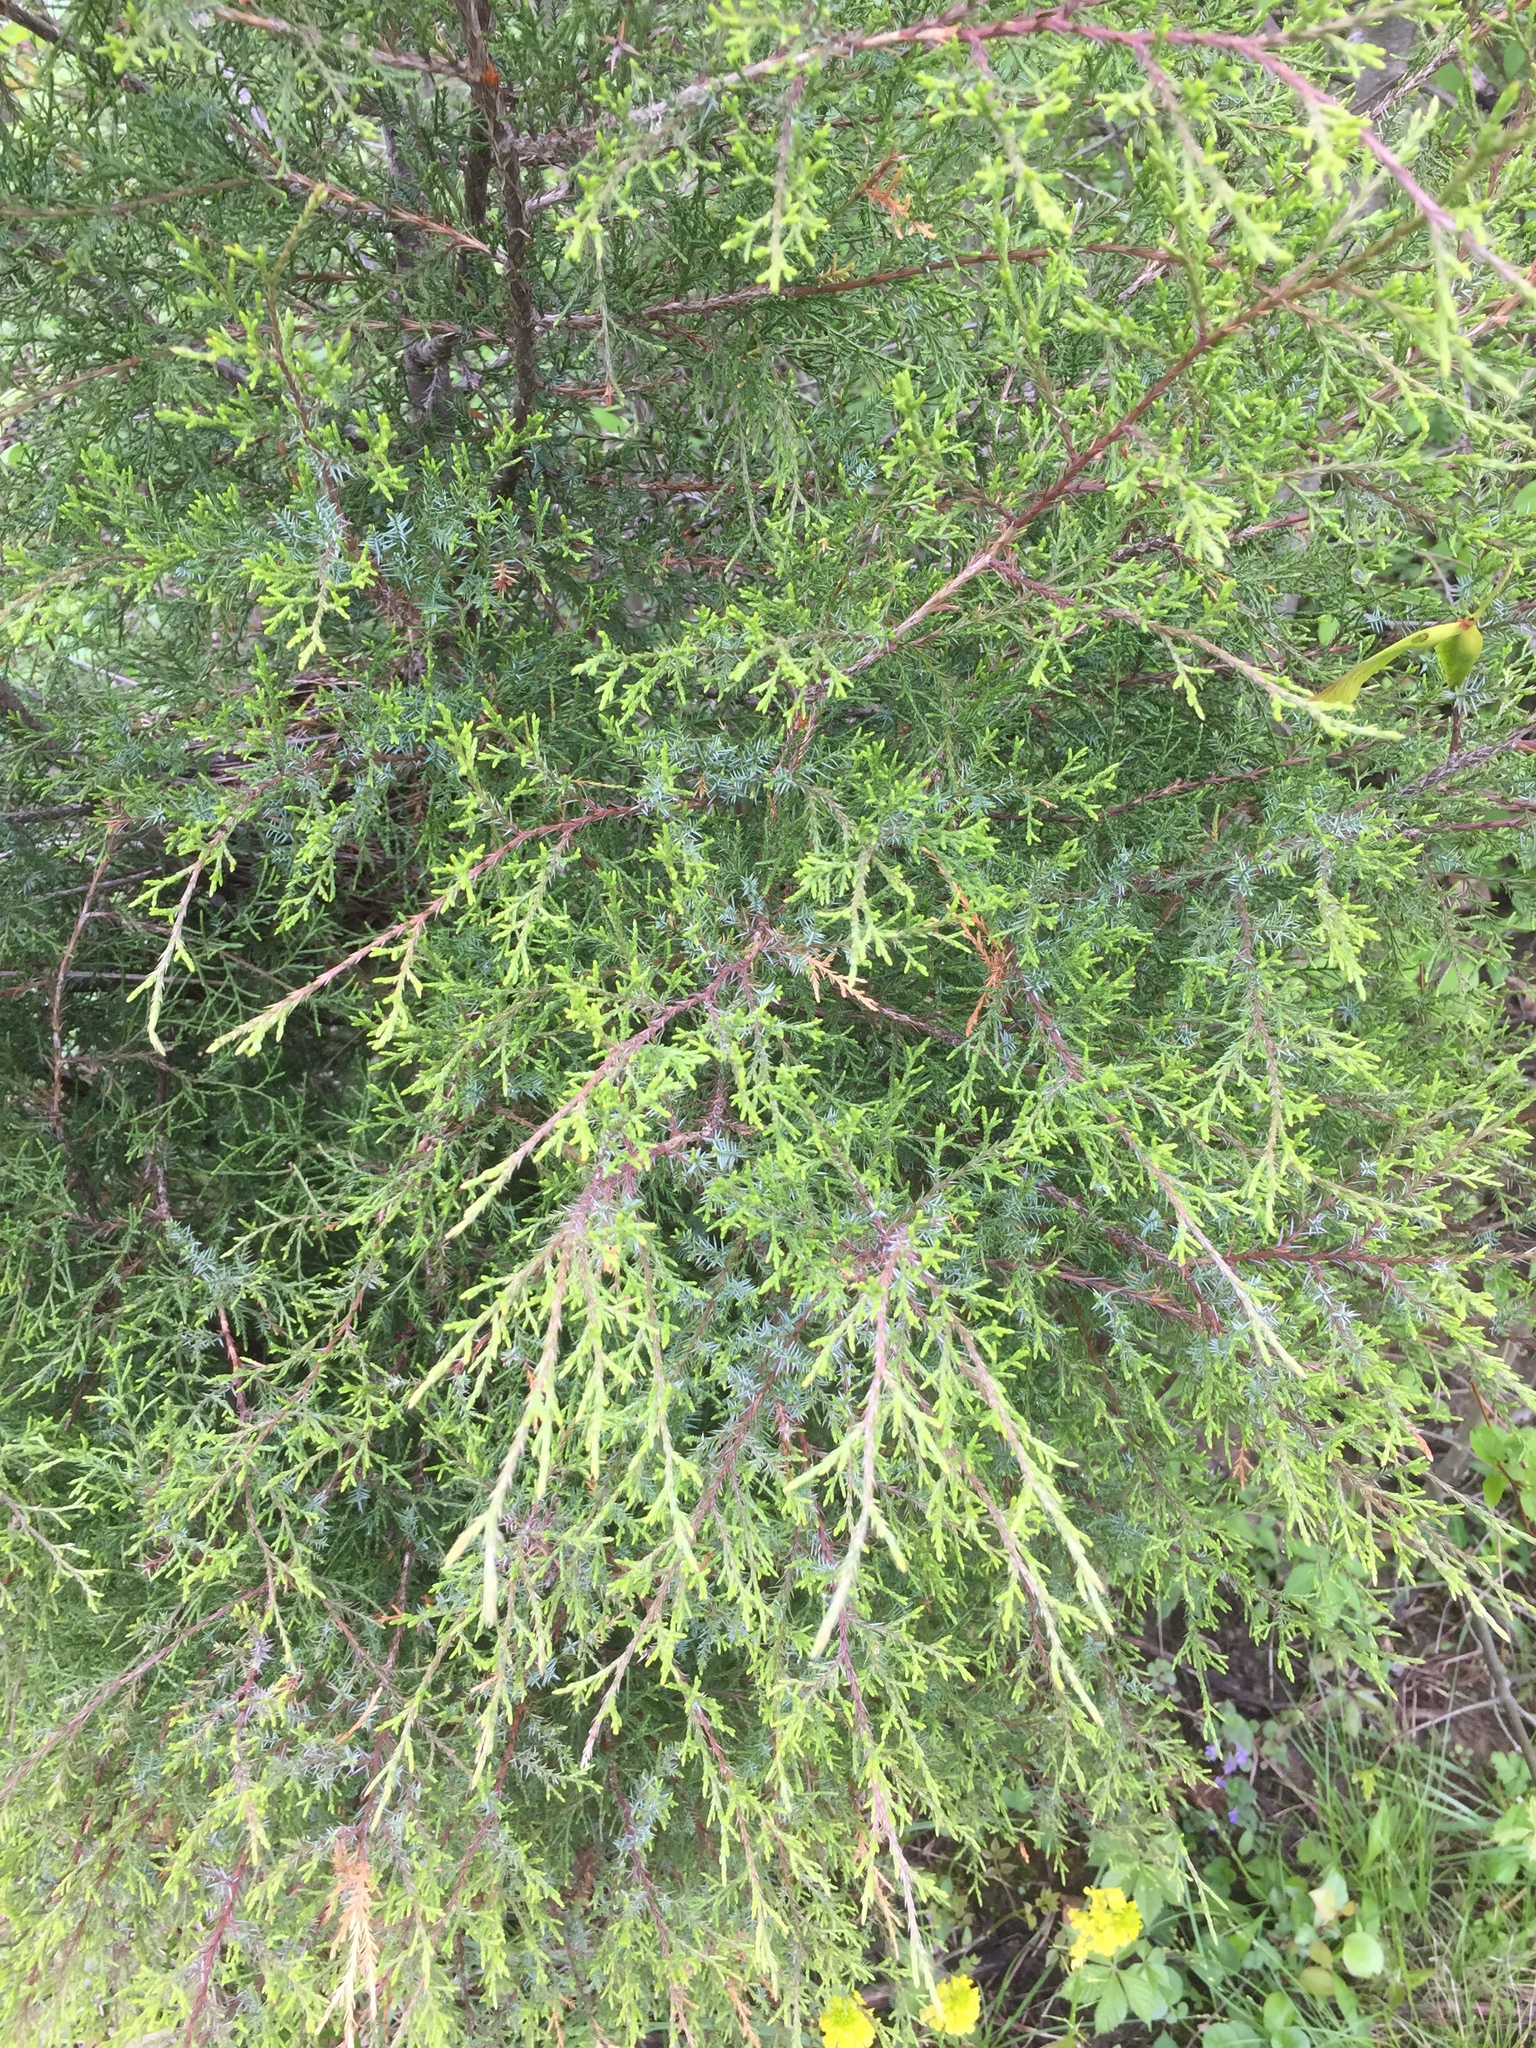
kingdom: Plantae
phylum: Tracheophyta
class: Pinopsida
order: Pinales
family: Cupressaceae
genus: Juniperus
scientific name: Juniperus virginiana
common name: Red juniper
